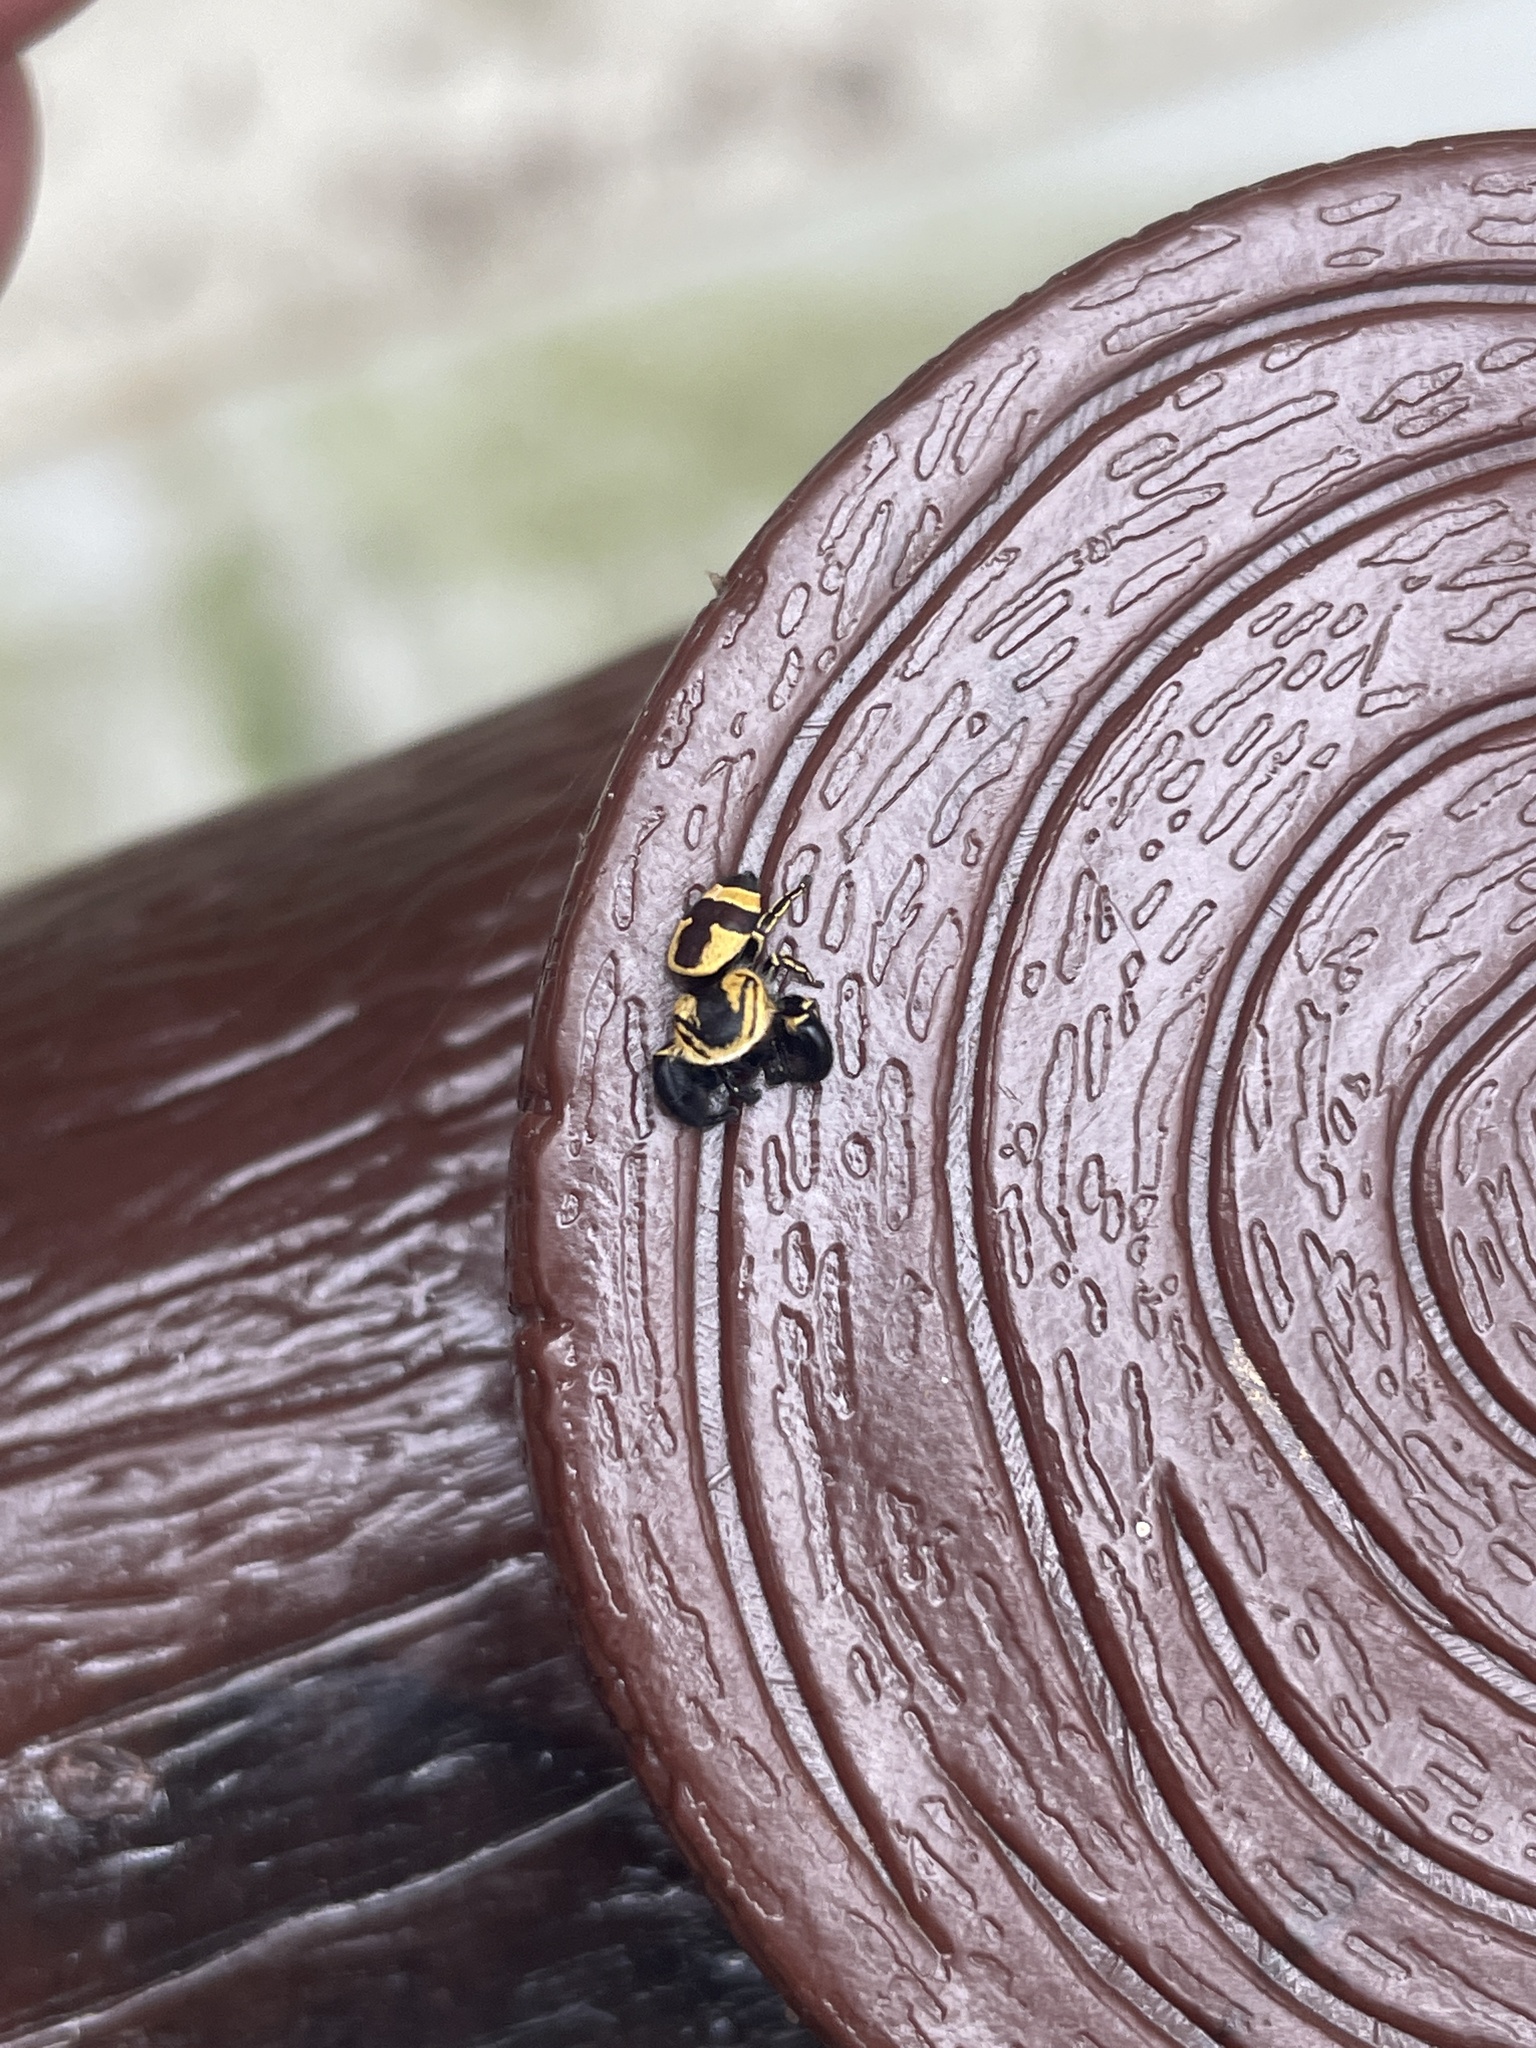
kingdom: Animalia
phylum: Arthropoda
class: Arachnida
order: Araneae
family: Salticidae
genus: Rhene
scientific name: Rhene flavicomans
